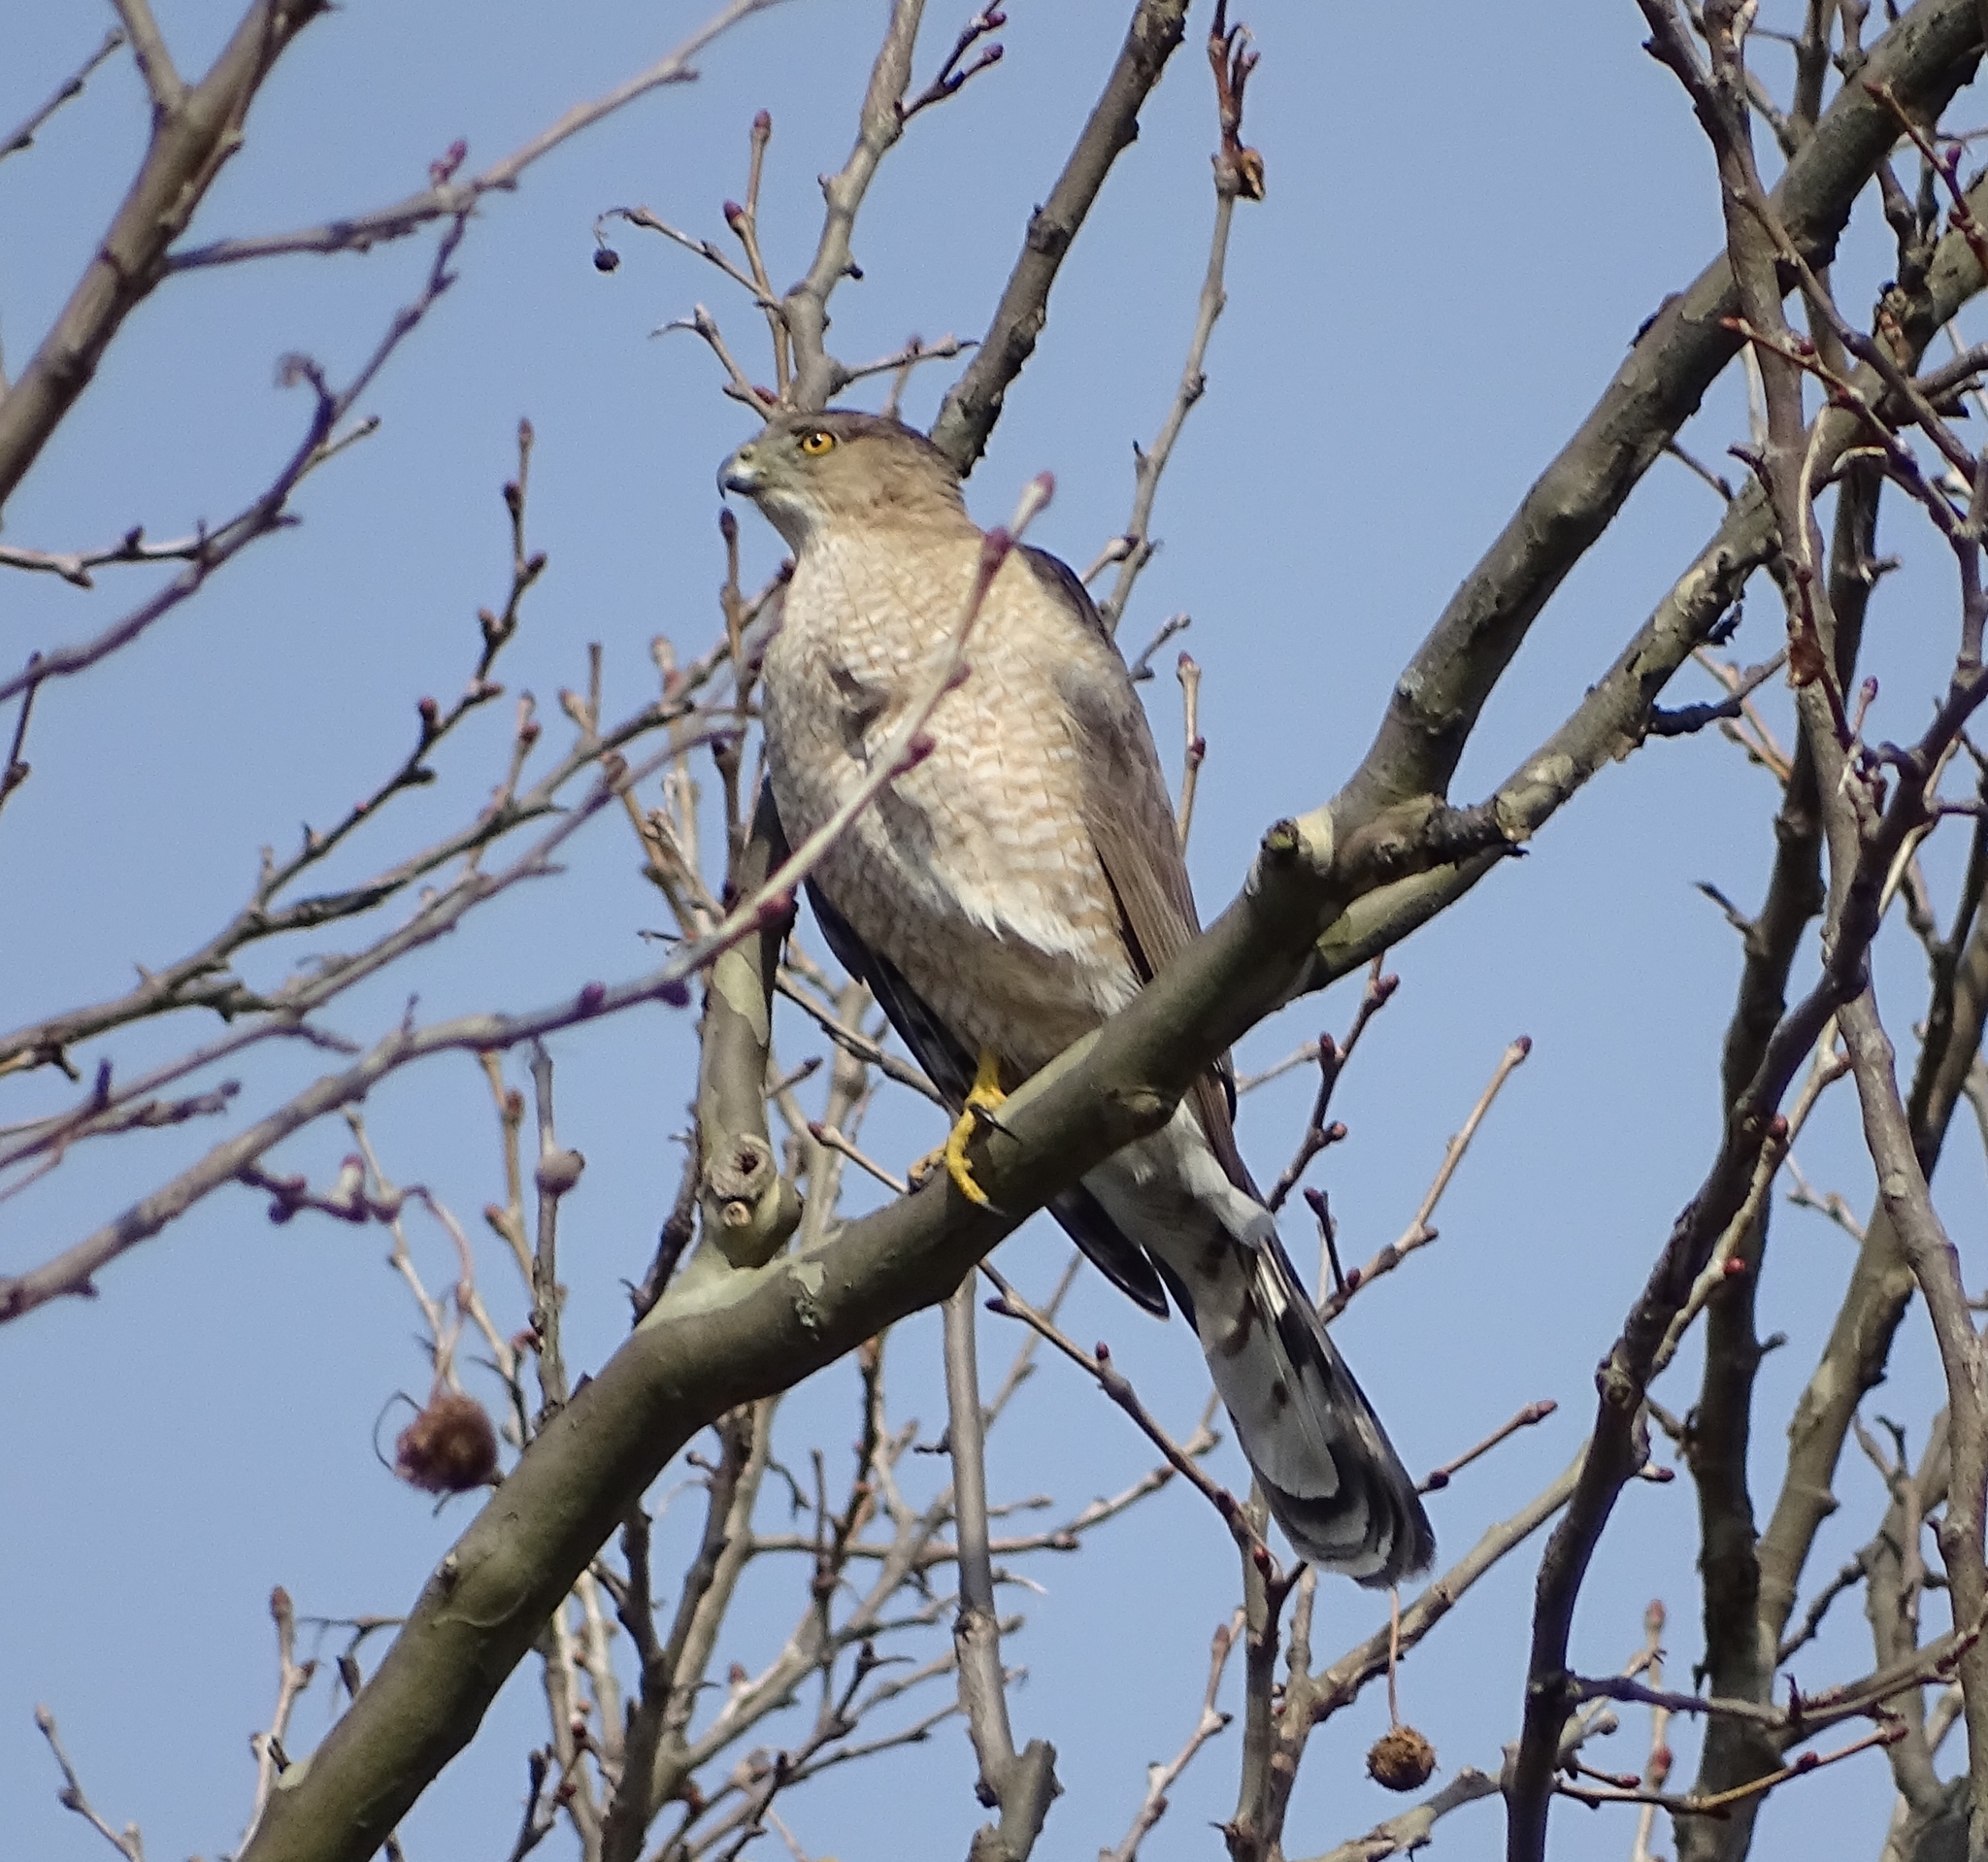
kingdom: Animalia
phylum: Chordata
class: Aves
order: Accipitriformes
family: Accipitridae
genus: Accipiter
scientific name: Accipiter cooperii
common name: Cooper's hawk
